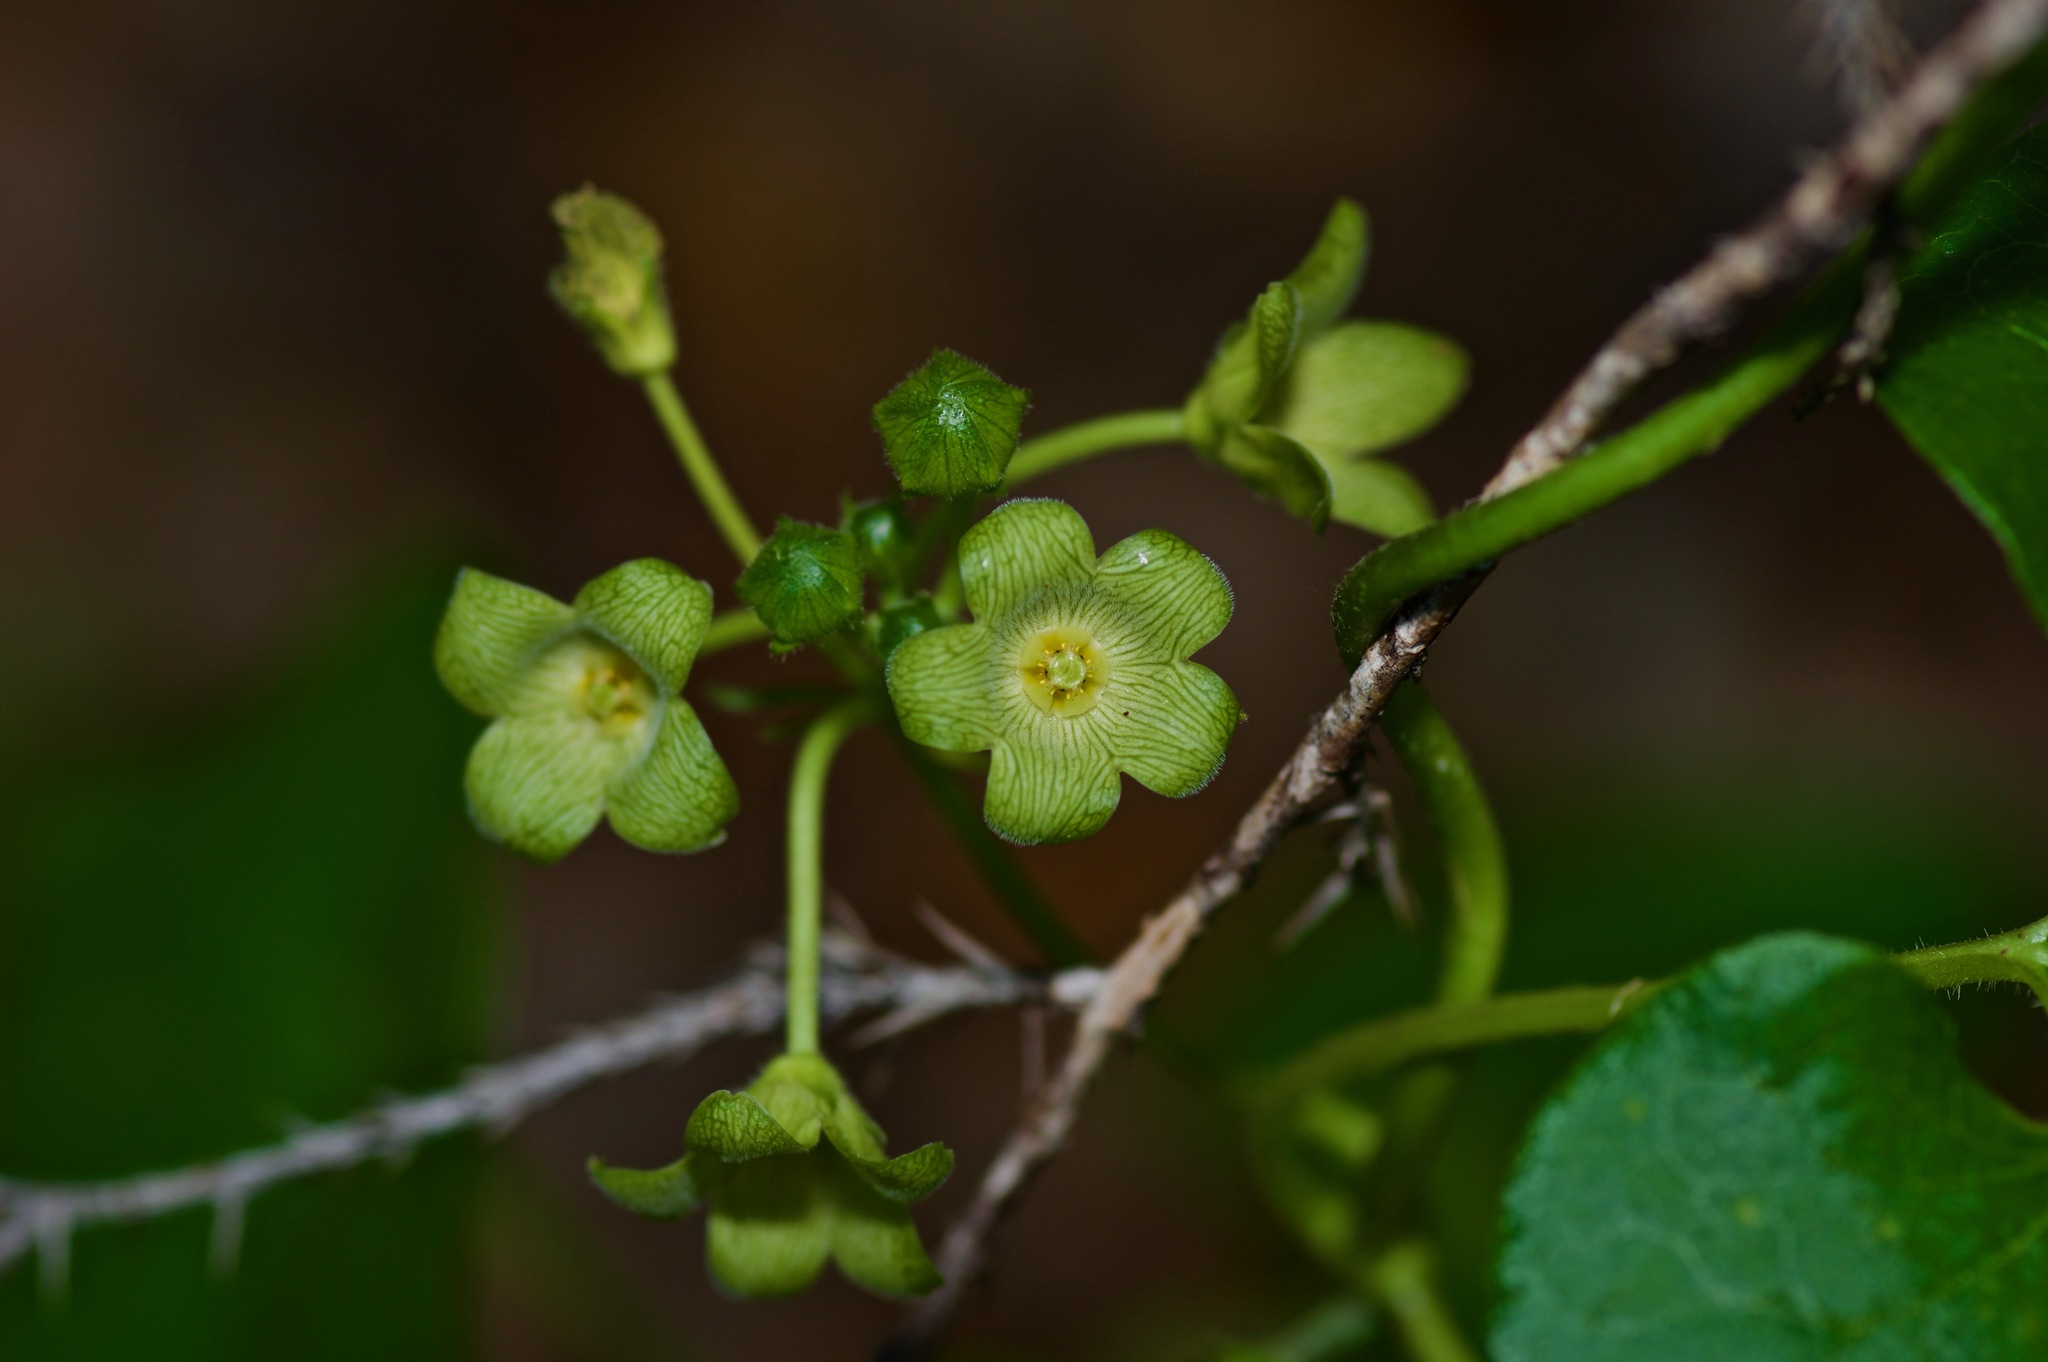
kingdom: Plantae
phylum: Tracheophyta
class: Magnoliopsida
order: Gentianales
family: Apocynaceae
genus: Matelea
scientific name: Matelea edwardsensis
